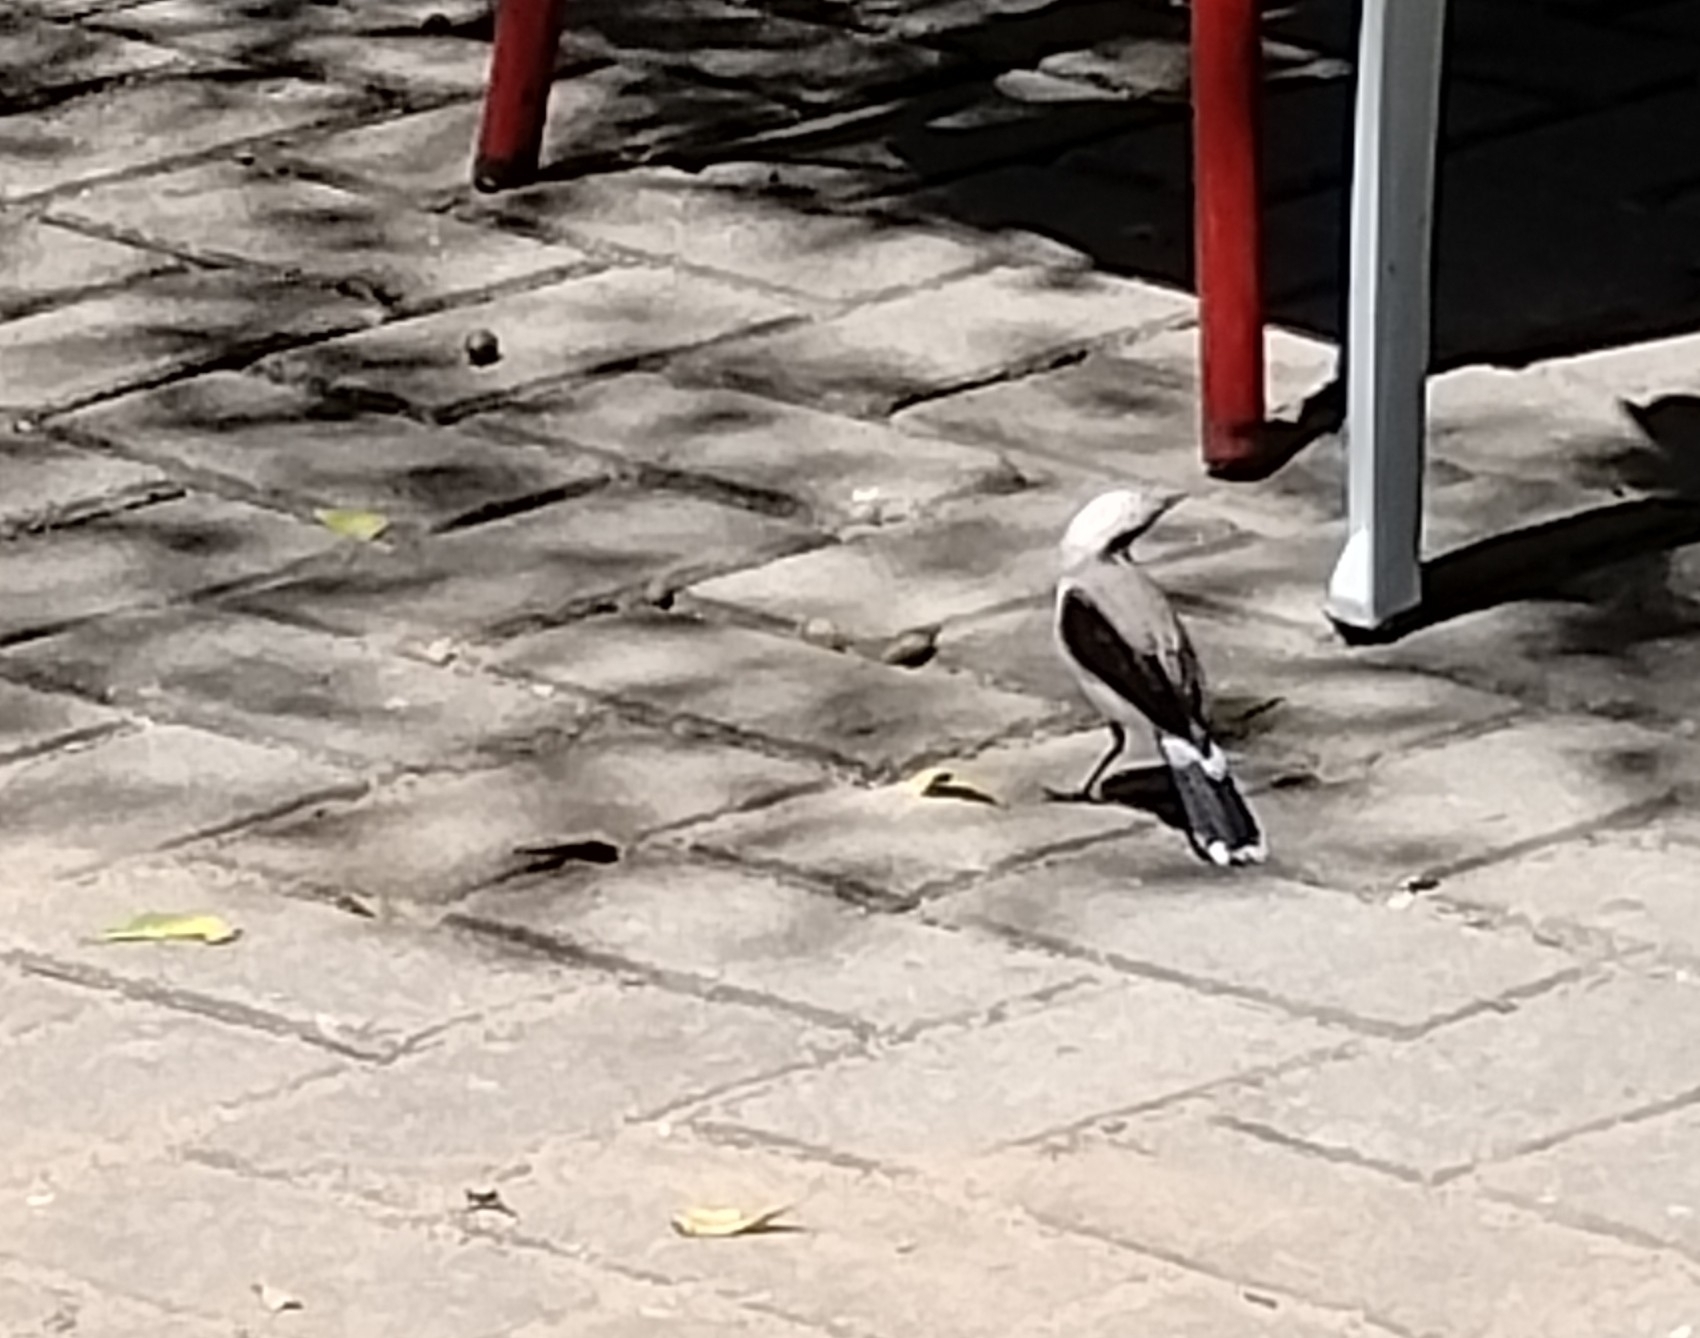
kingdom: Animalia
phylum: Chordata
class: Aves
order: Passeriformes
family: Tyrannidae
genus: Fluvicola
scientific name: Fluvicola nengeta
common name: Masked water tyrant
